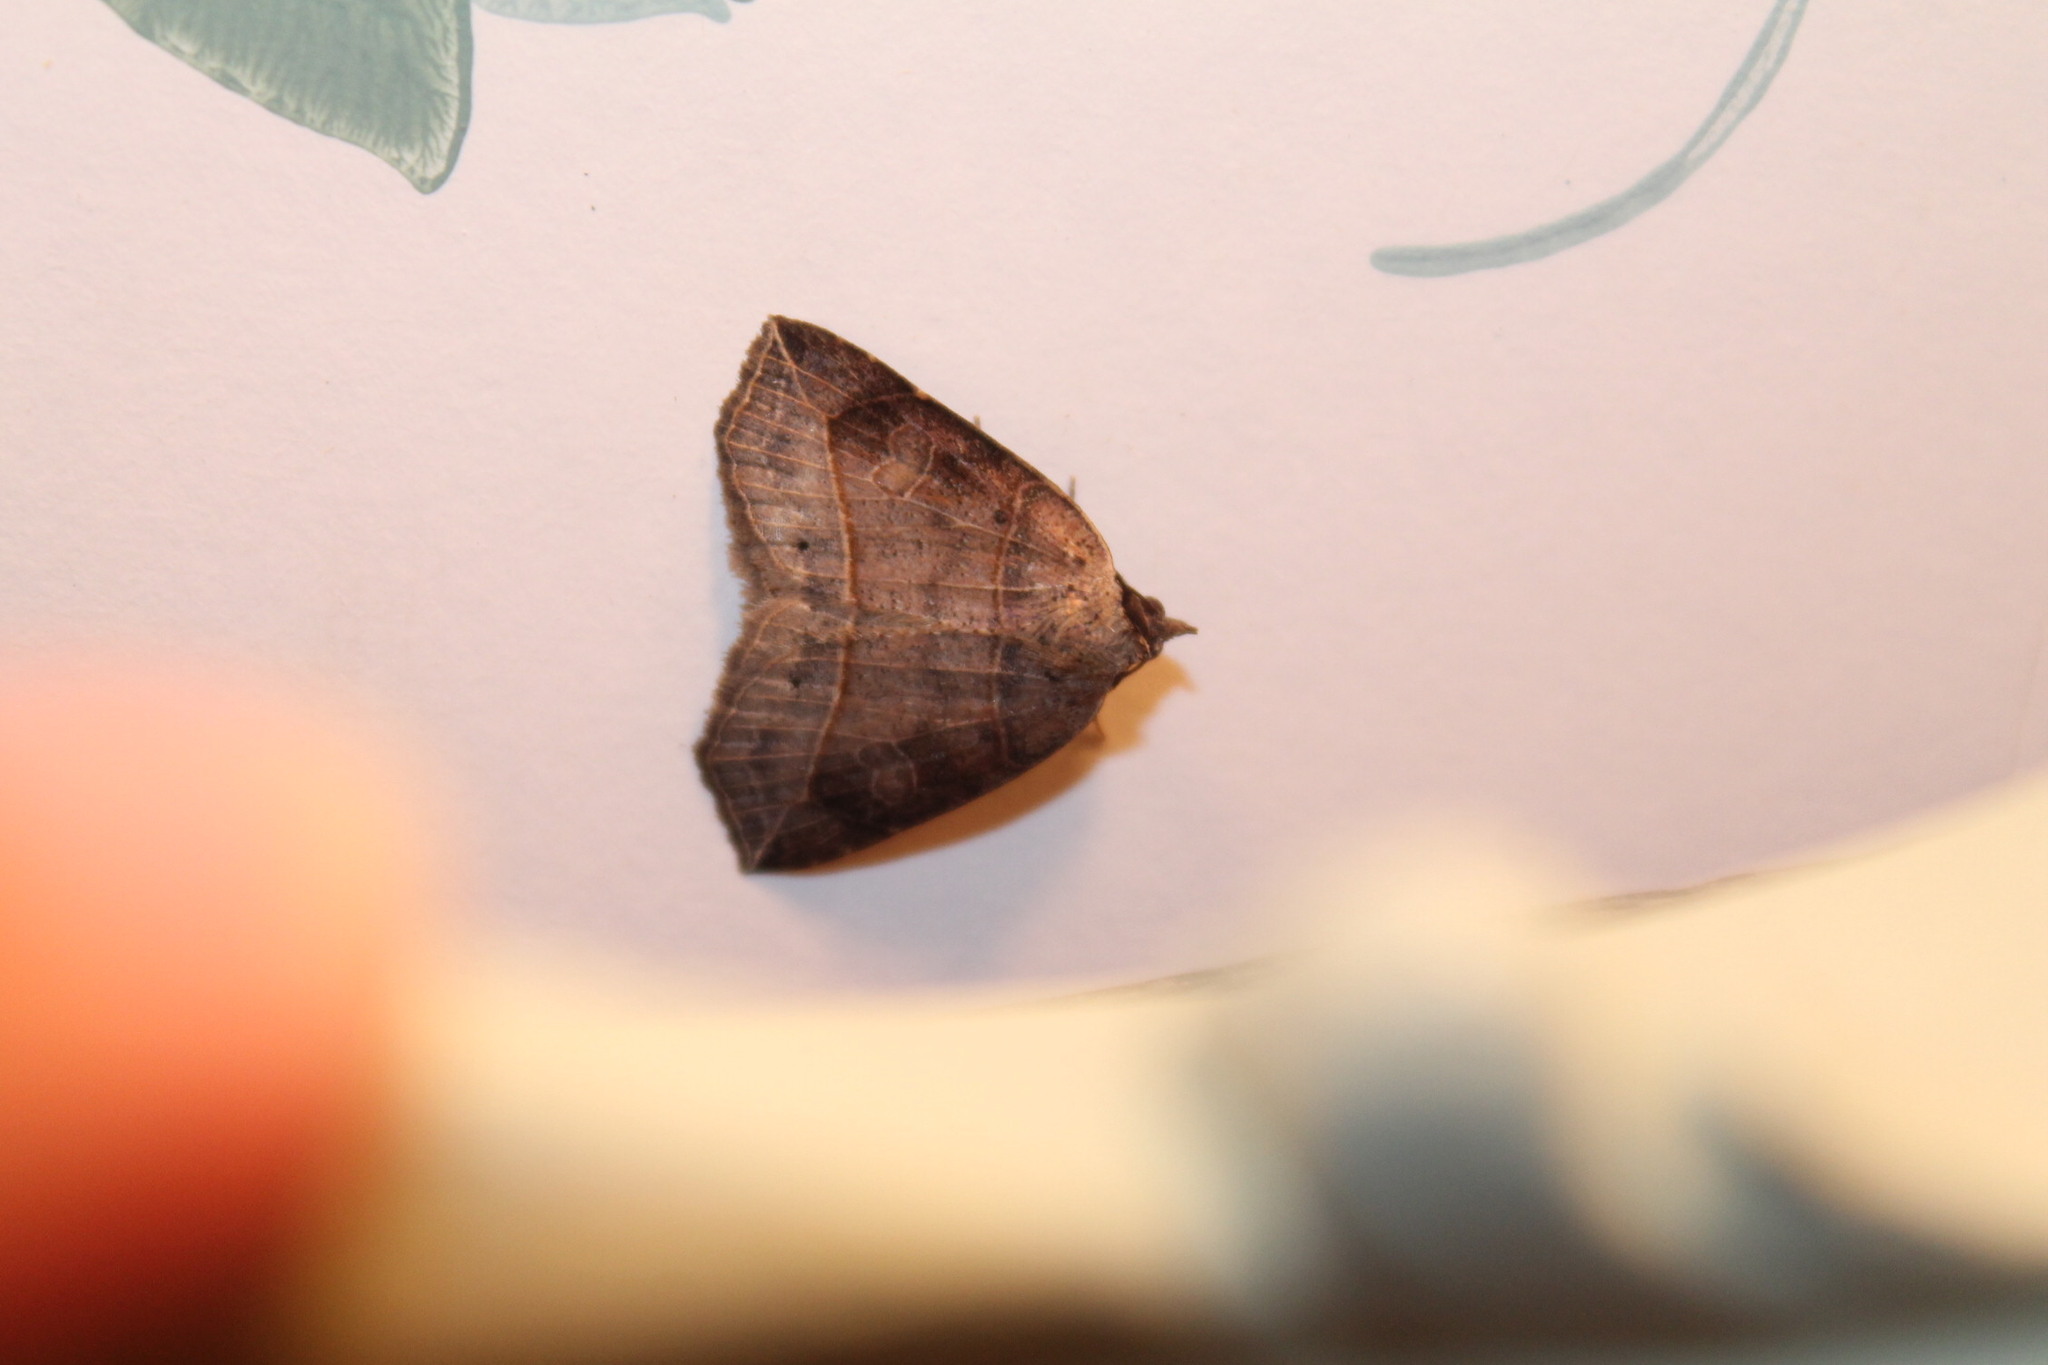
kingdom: Animalia
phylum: Arthropoda
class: Insecta
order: Lepidoptera
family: Erebidae
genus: Isogona
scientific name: Isogona tenuis
